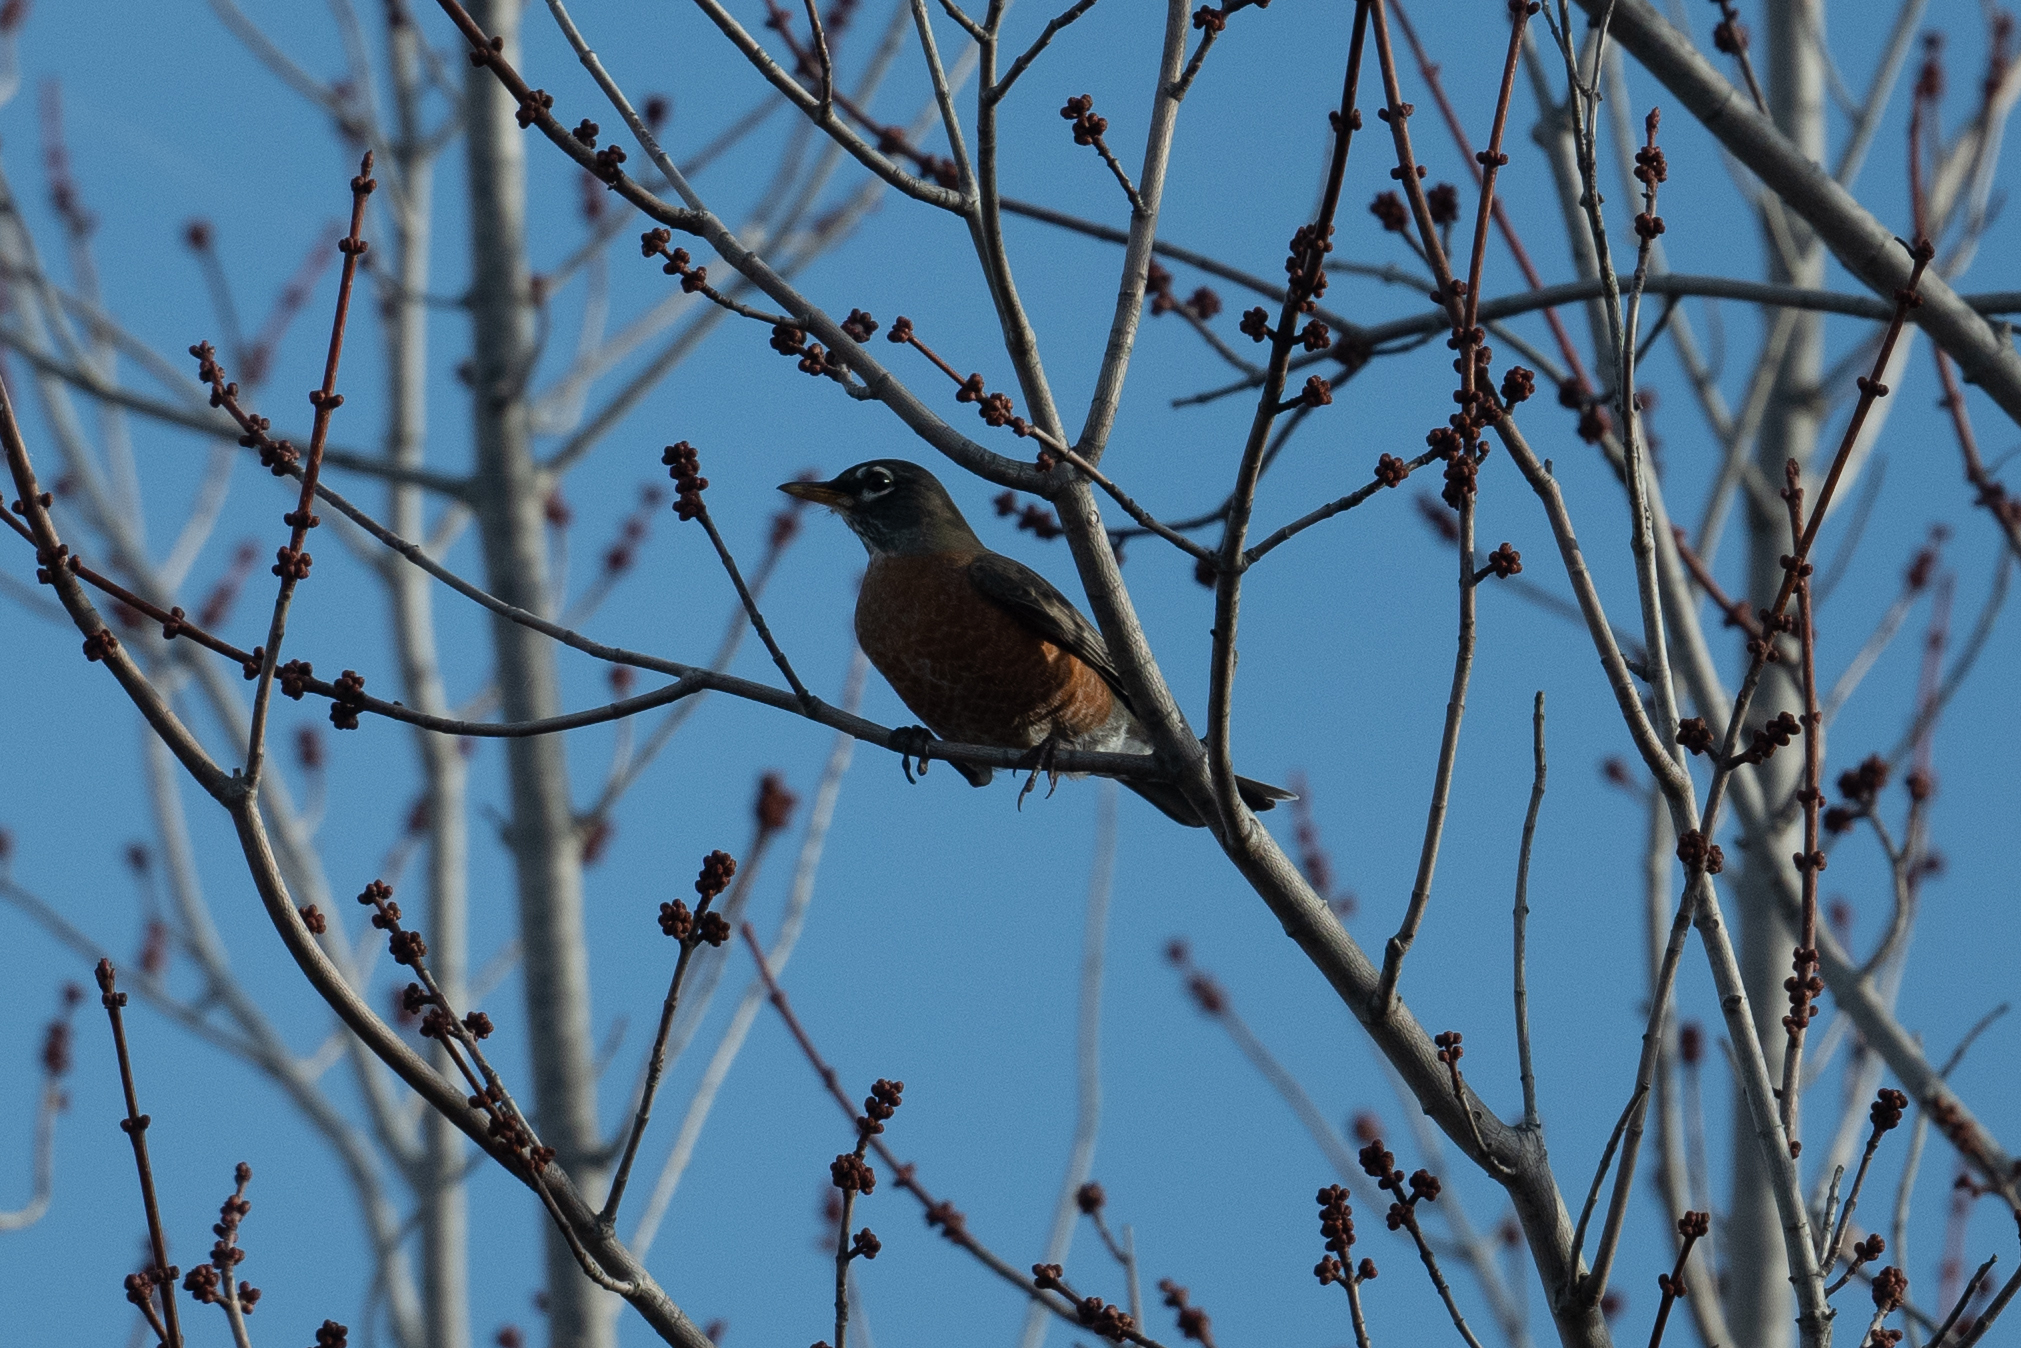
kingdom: Animalia
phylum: Chordata
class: Aves
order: Passeriformes
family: Turdidae
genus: Turdus
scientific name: Turdus migratorius
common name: American robin
